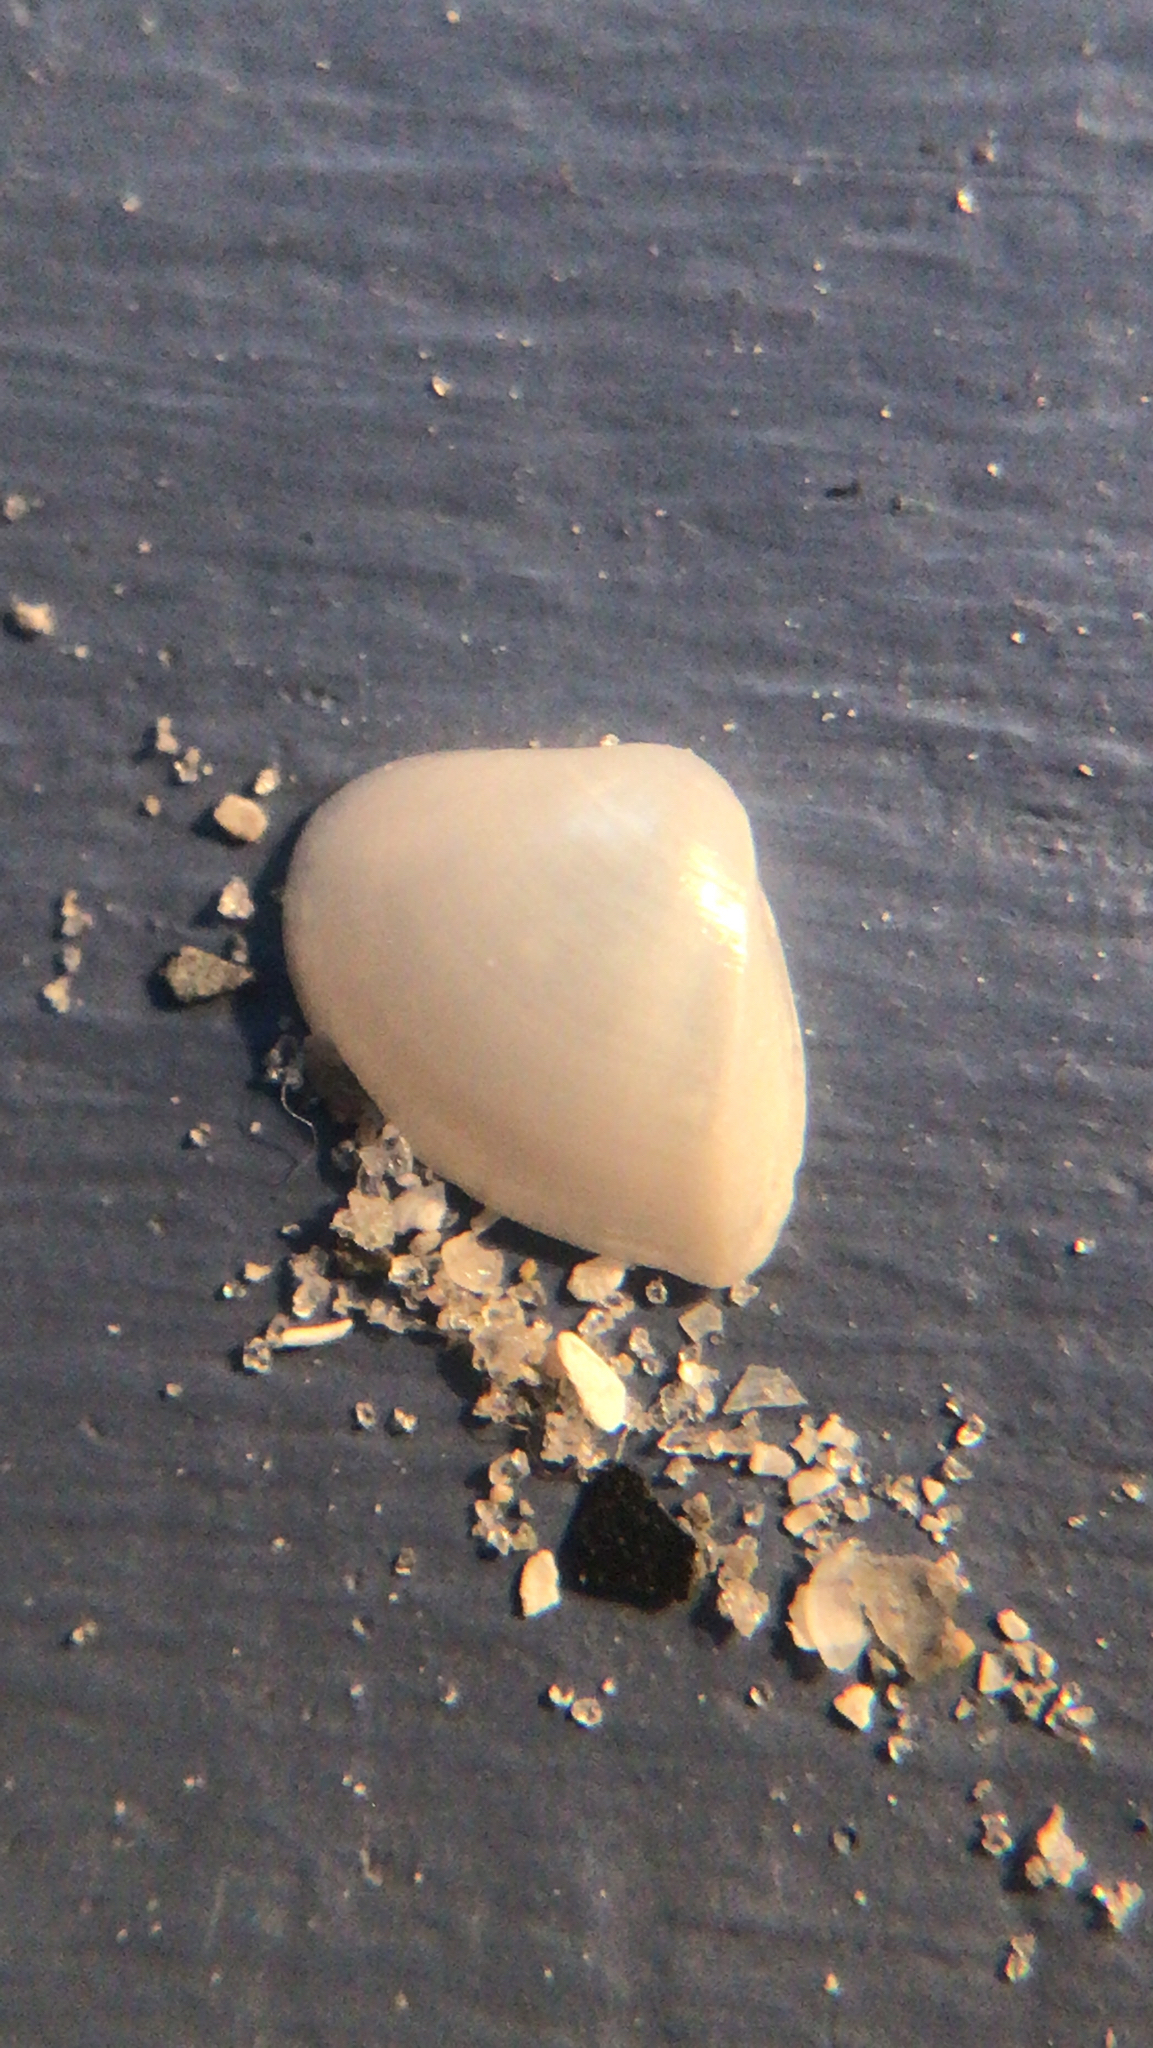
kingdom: Animalia
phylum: Mollusca
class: Bivalvia
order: Venerida
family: Mactridae
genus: Mulinia
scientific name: Mulinia lateralis
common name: Dwarf surfclam
